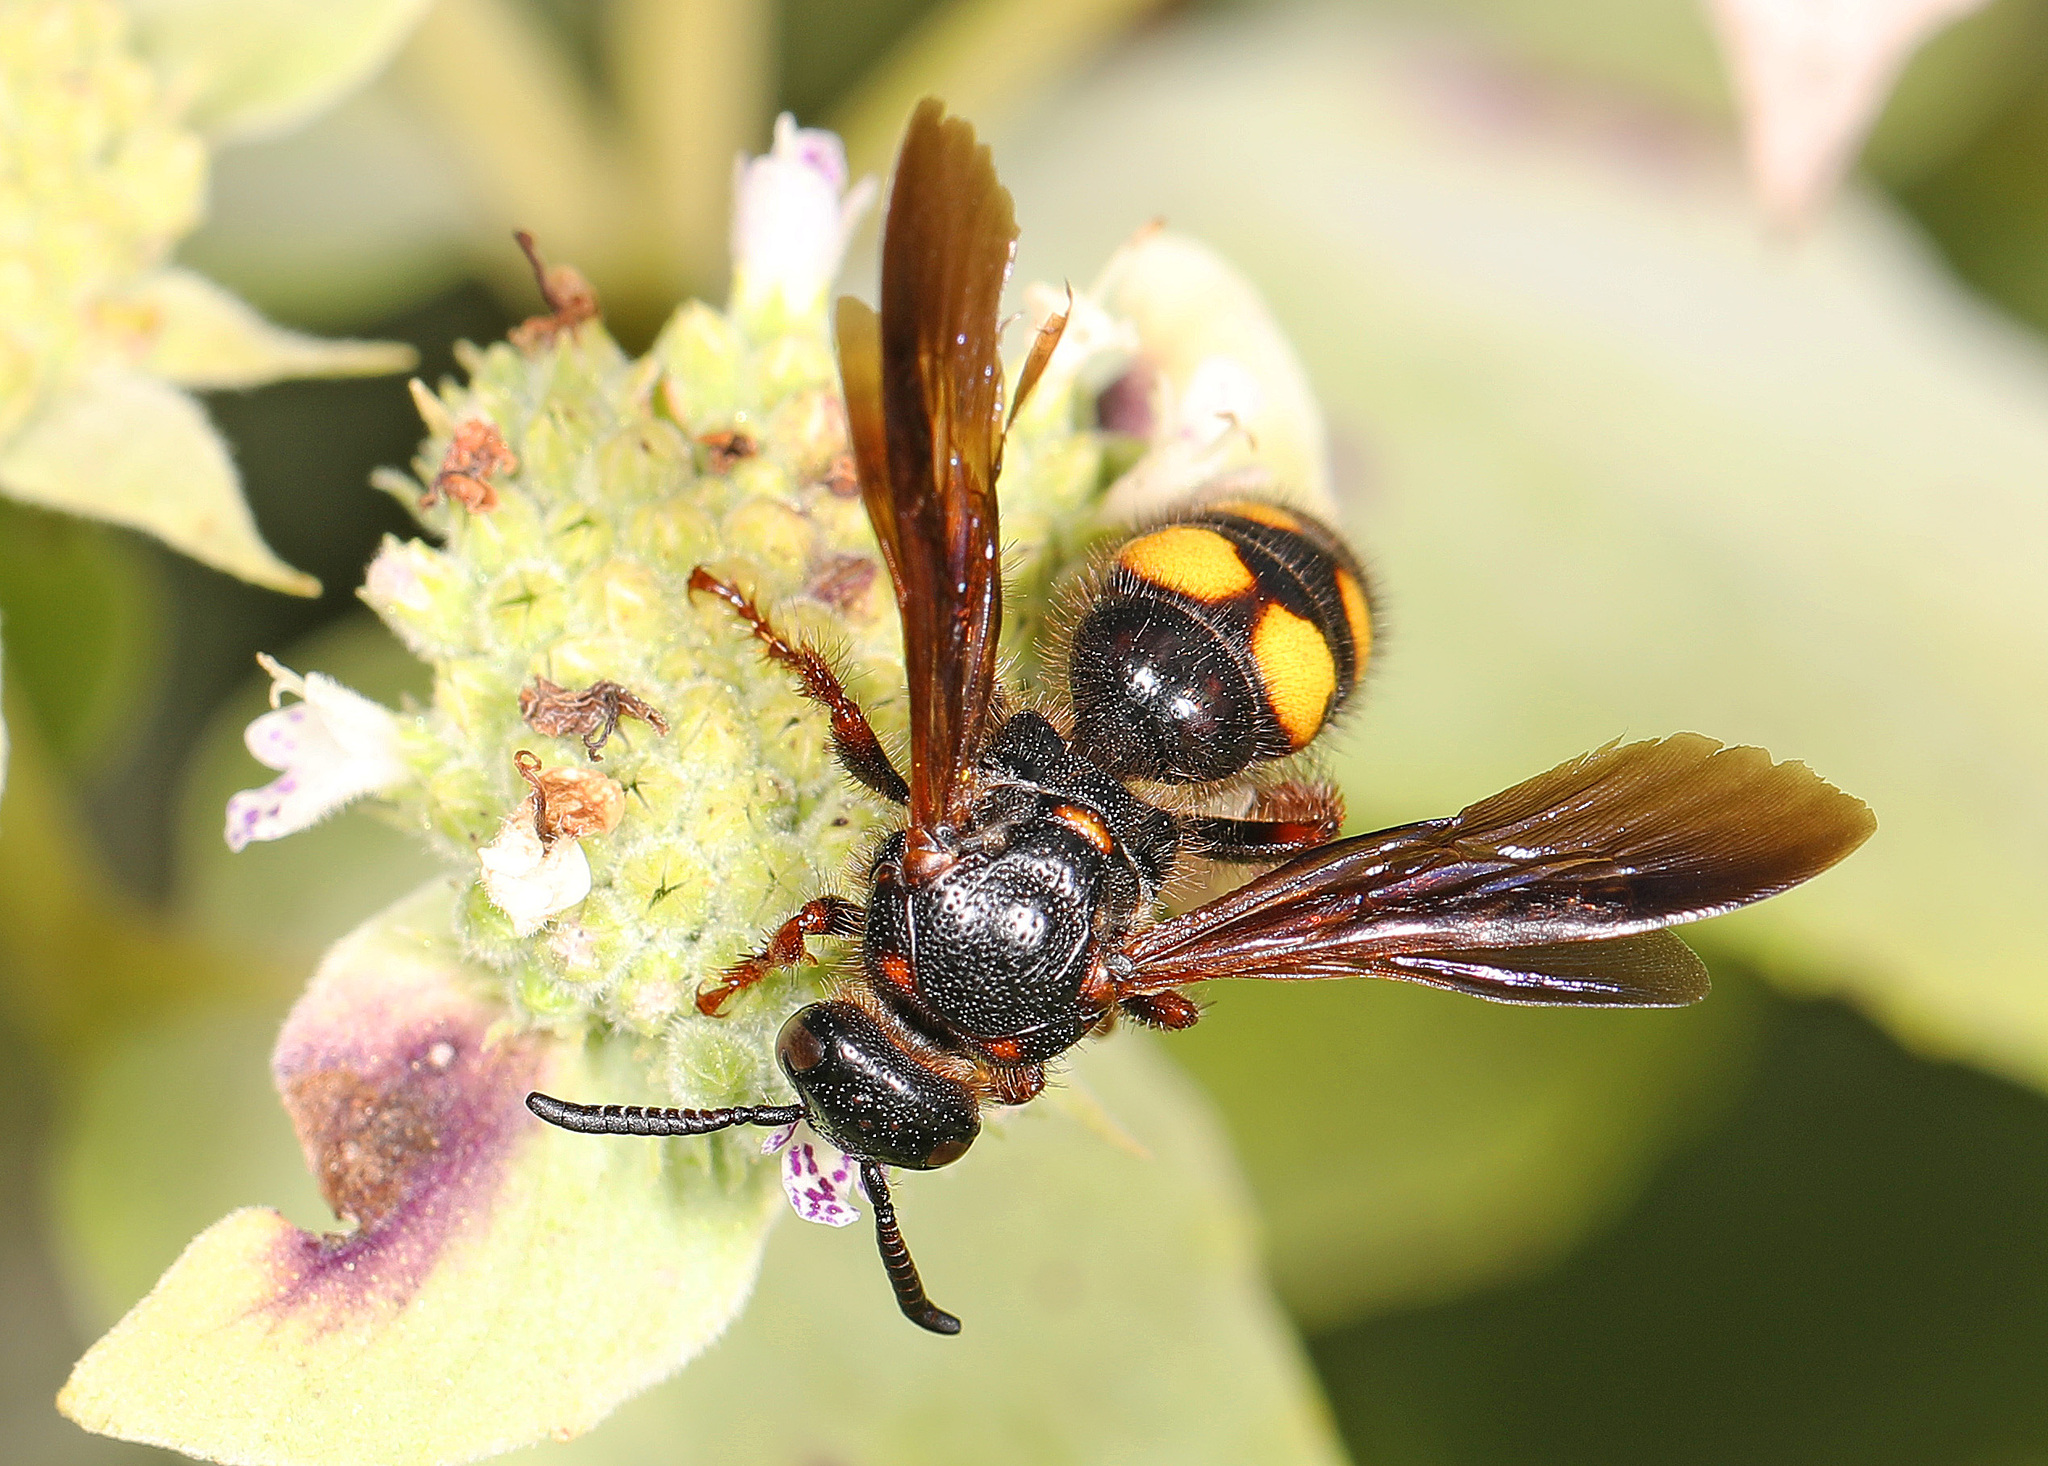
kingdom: Animalia
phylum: Arthropoda
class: Insecta
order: Hymenoptera
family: Scoliidae
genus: Scolia
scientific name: Scolia nobilitata
